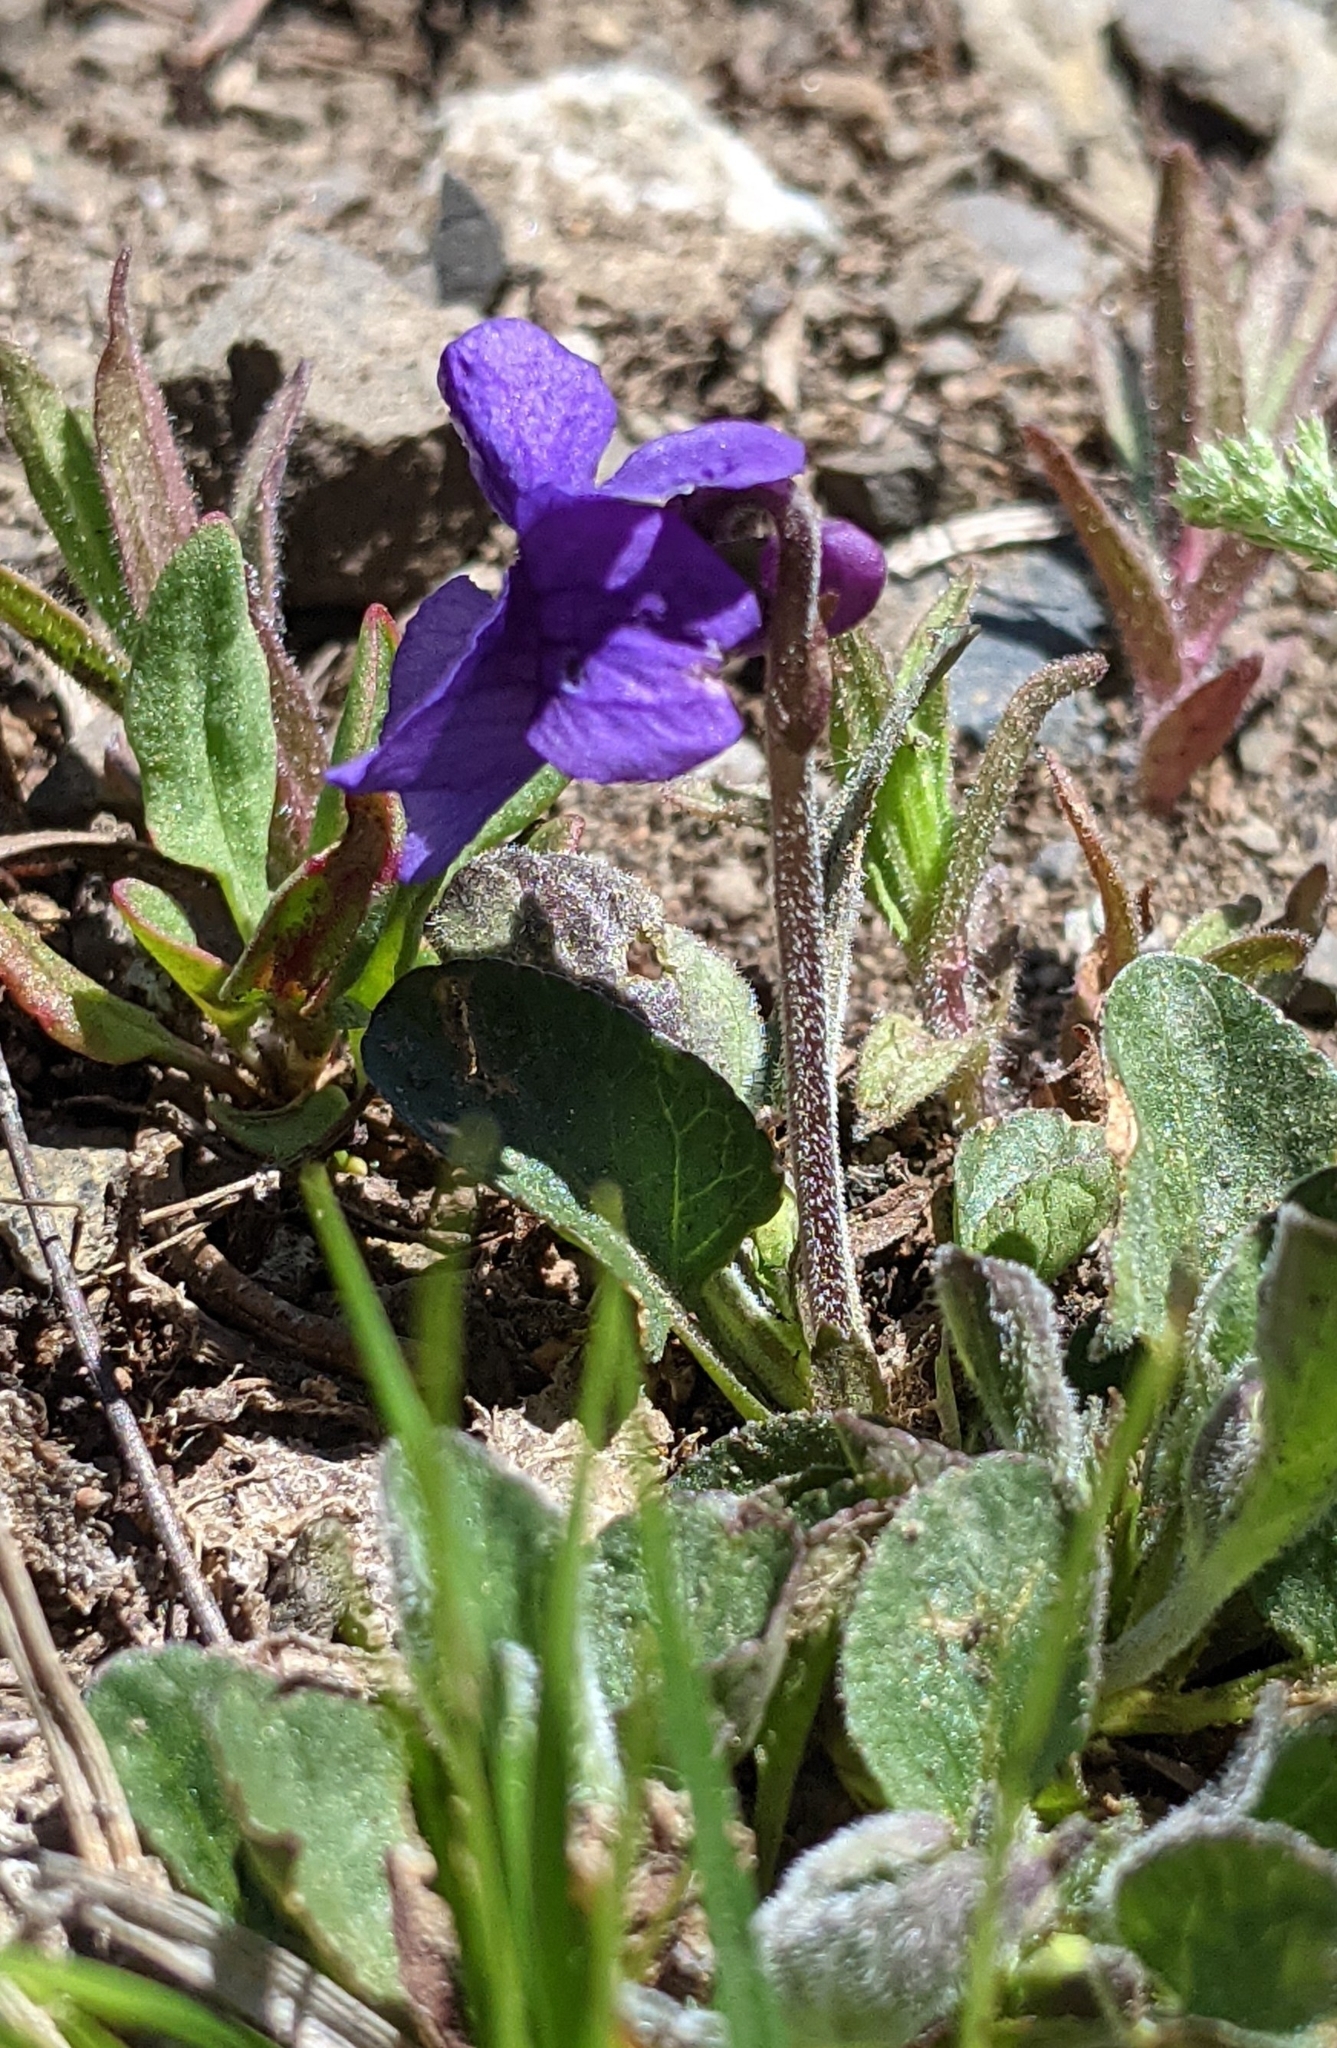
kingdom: Plantae
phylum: Tracheophyta
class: Magnoliopsida
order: Malpighiales
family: Violaceae
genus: Viola
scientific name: Viola adunca
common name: Sand violet
